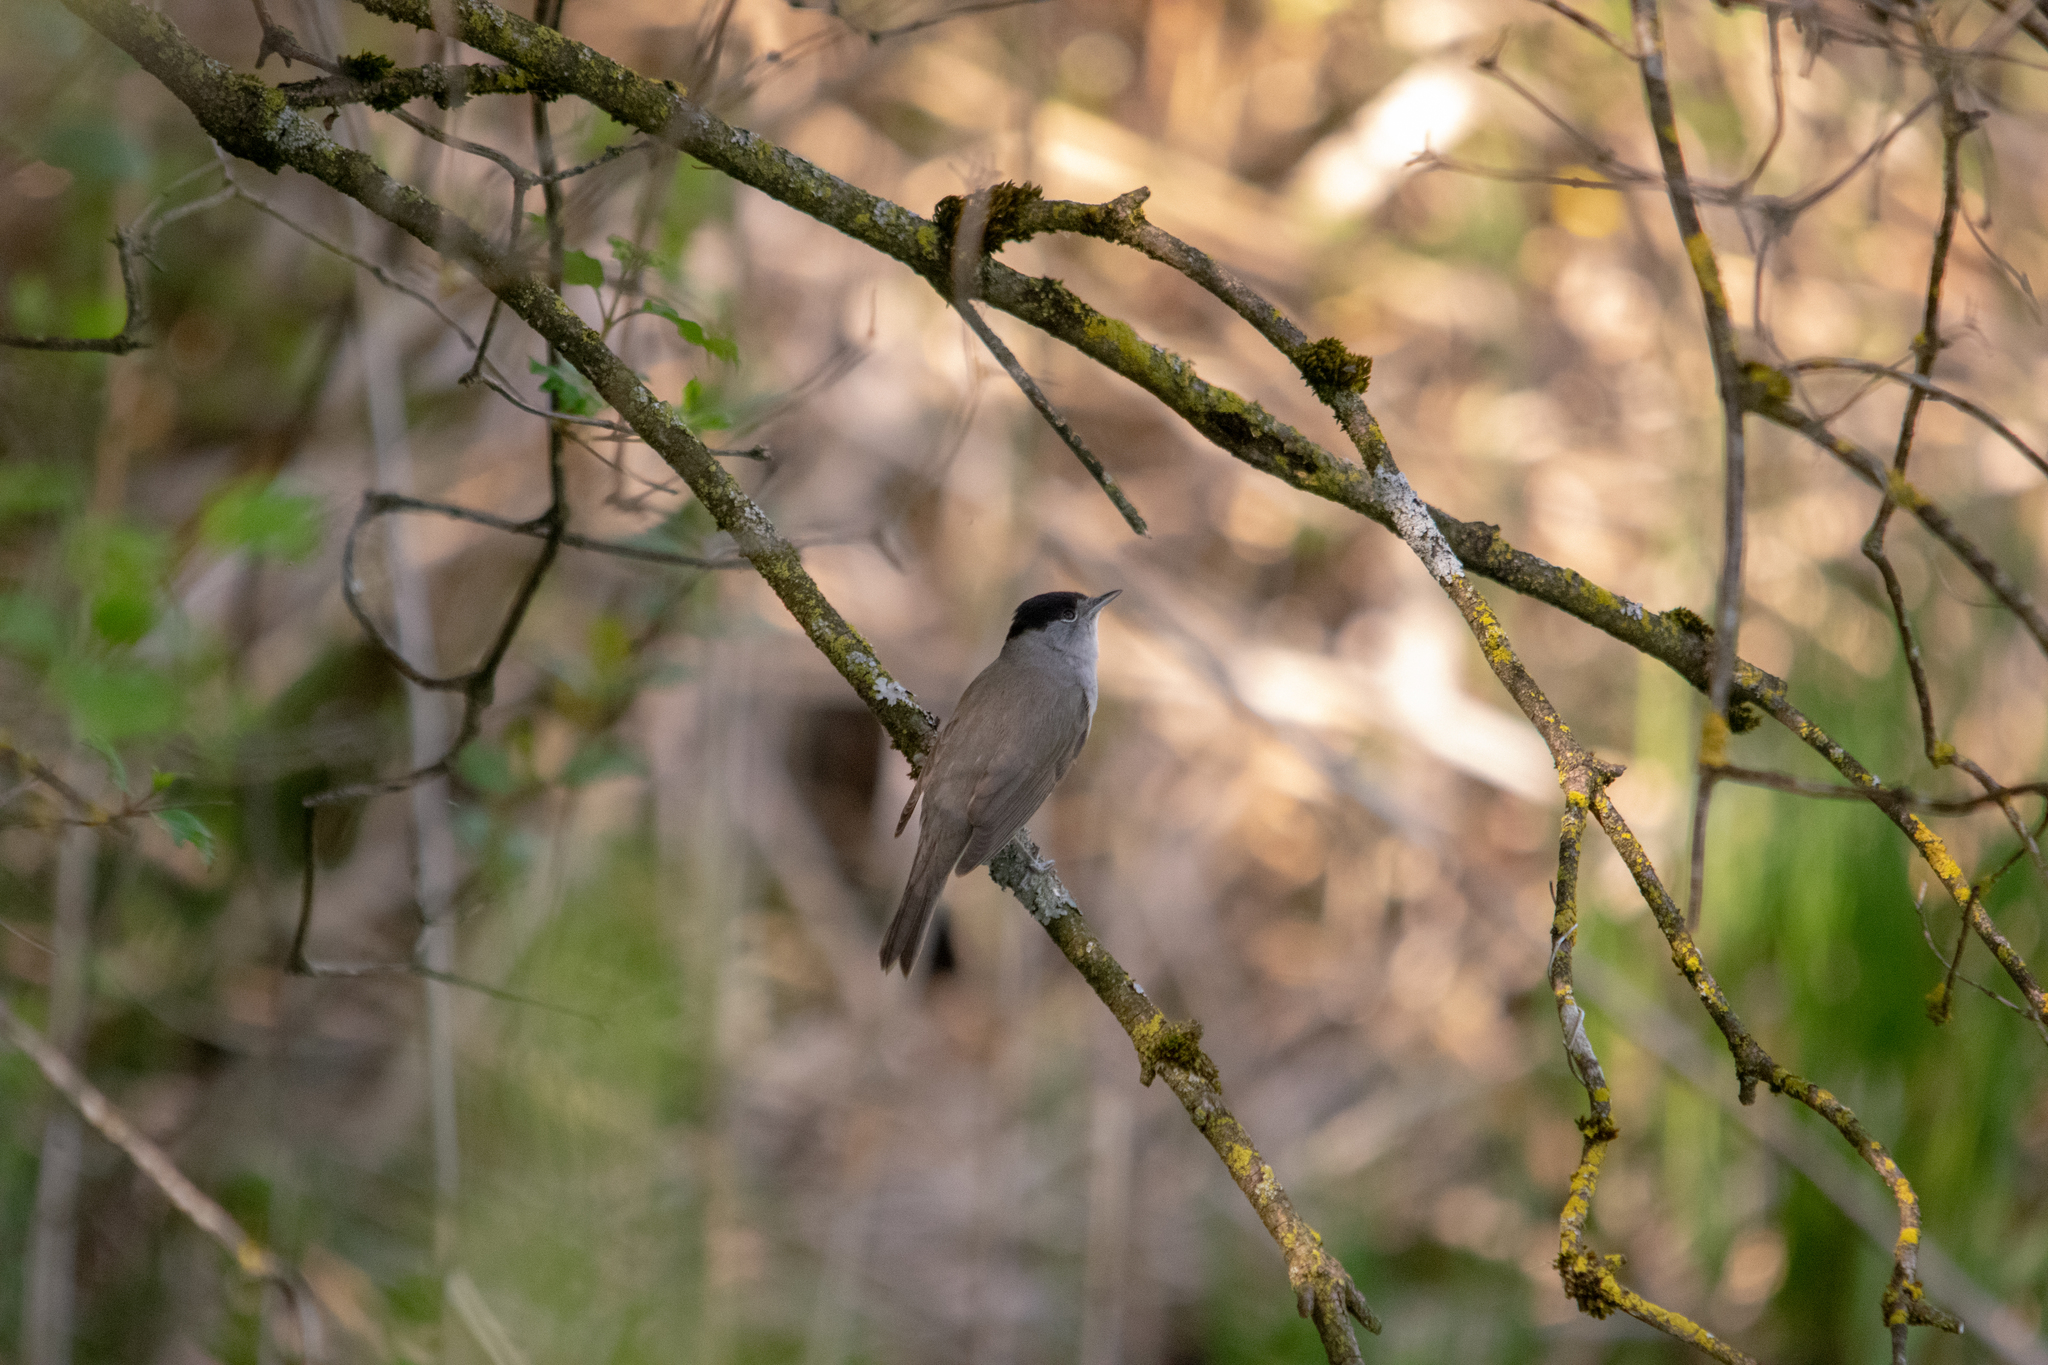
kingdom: Animalia
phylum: Chordata
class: Aves
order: Passeriformes
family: Sylviidae
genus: Sylvia
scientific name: Sylvia atricapilla
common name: Eurasian blackcap
